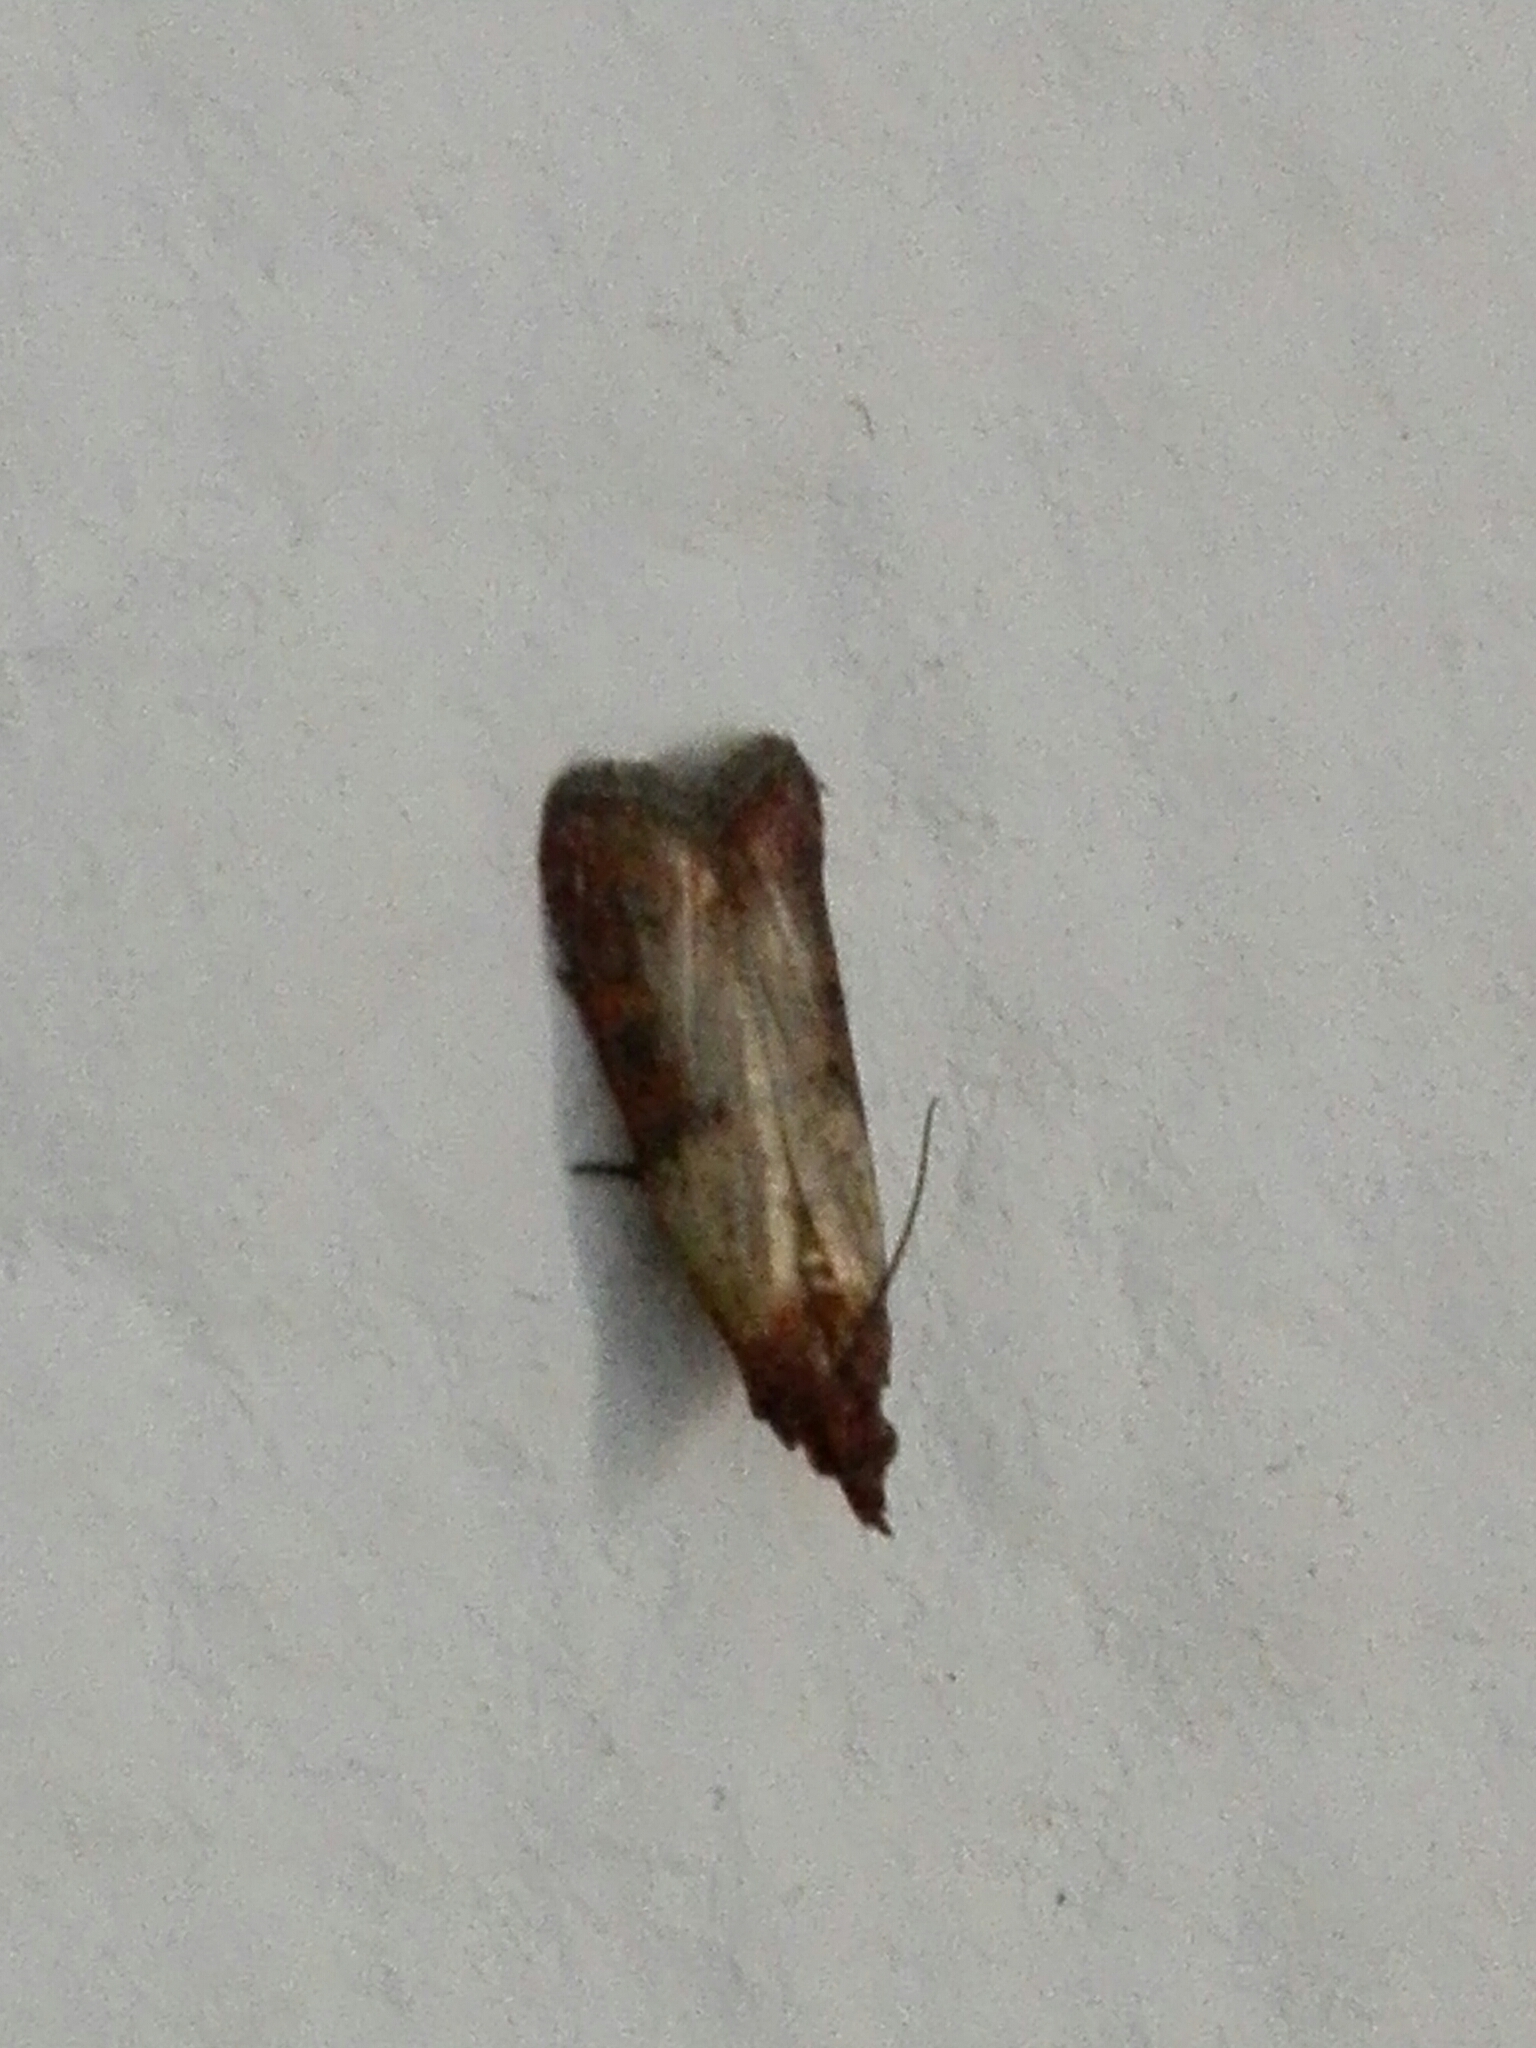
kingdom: Animalia
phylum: Arthropoda
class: Insecta
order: Lepidoptera
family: Pyralidae
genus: Plodia
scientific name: Plodia interpunctella
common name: Indian meal moth
